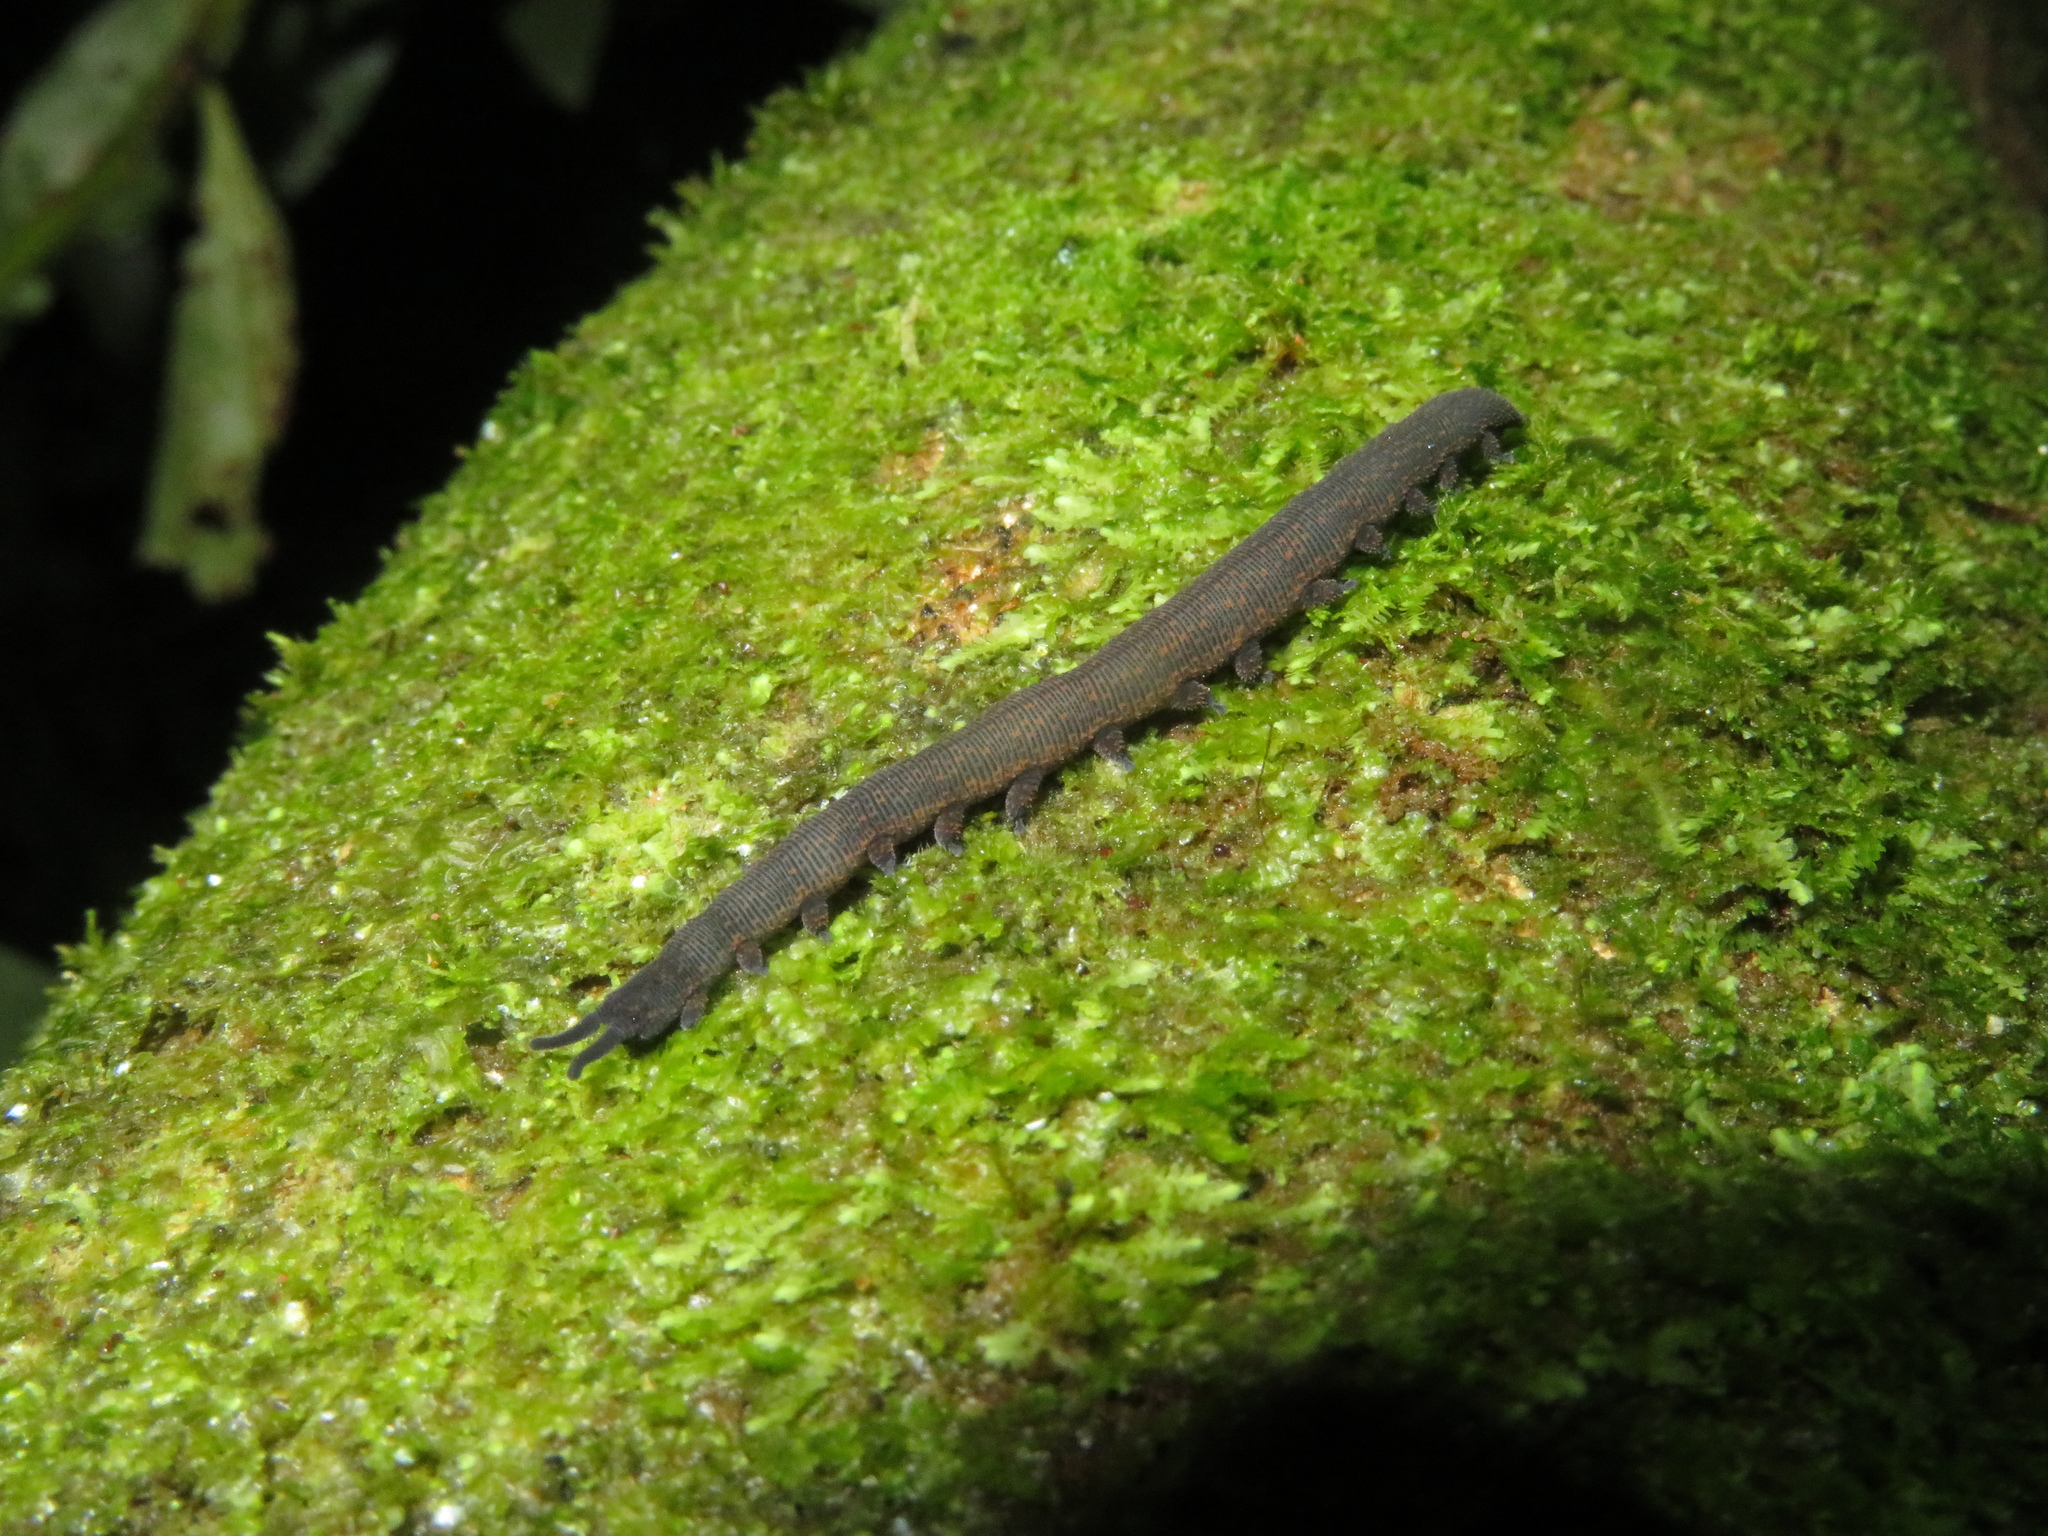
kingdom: Animalia
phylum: Onychophora
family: Peripatopsidae
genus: Peripatoides
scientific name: Peripatoides novaezealandiae
